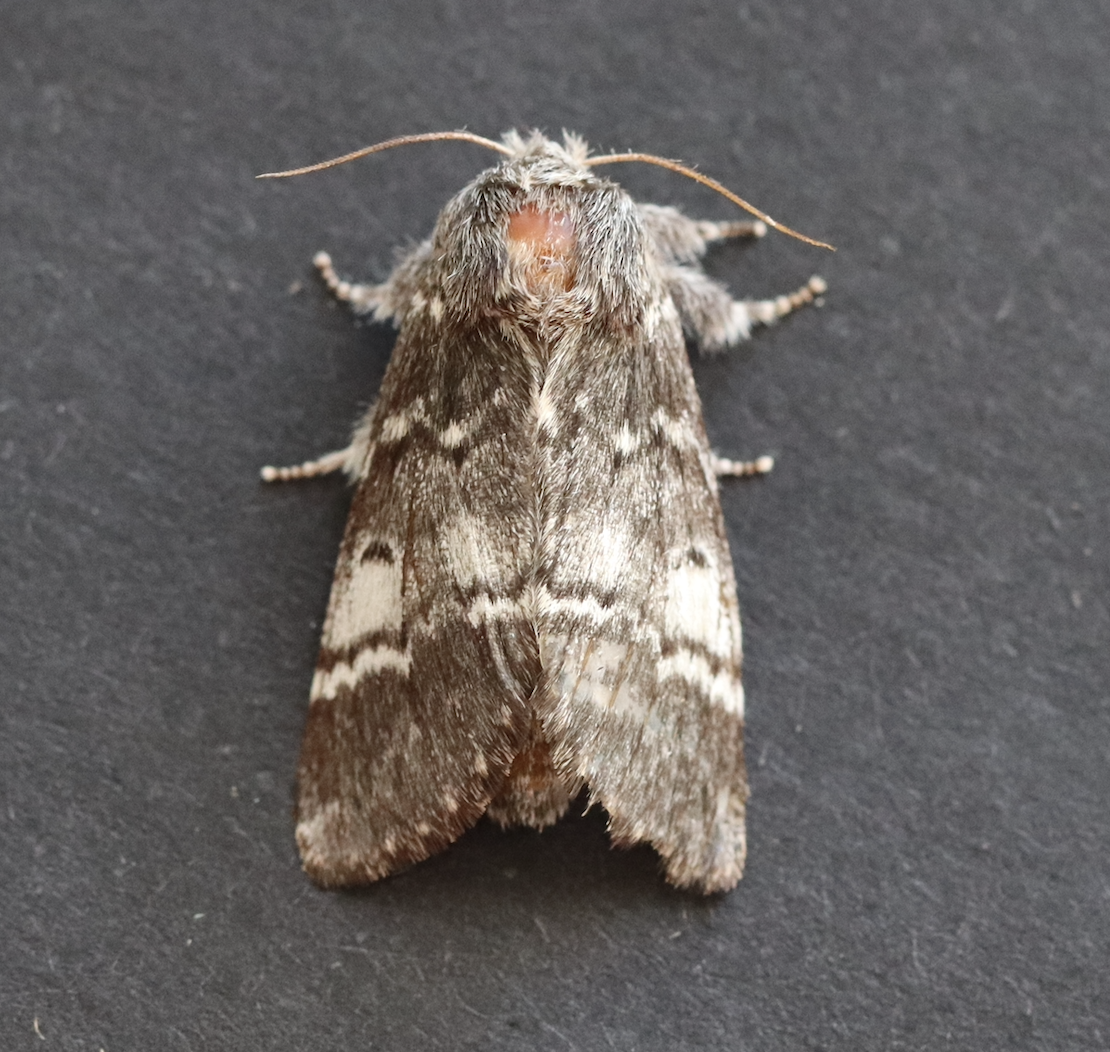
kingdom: Animalia
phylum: Arthropoda
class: Insecta
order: Lepidoptera
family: Notodontidae
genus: Drymonia
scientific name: Drymonia ruficornis
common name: Lunar marbled brown
